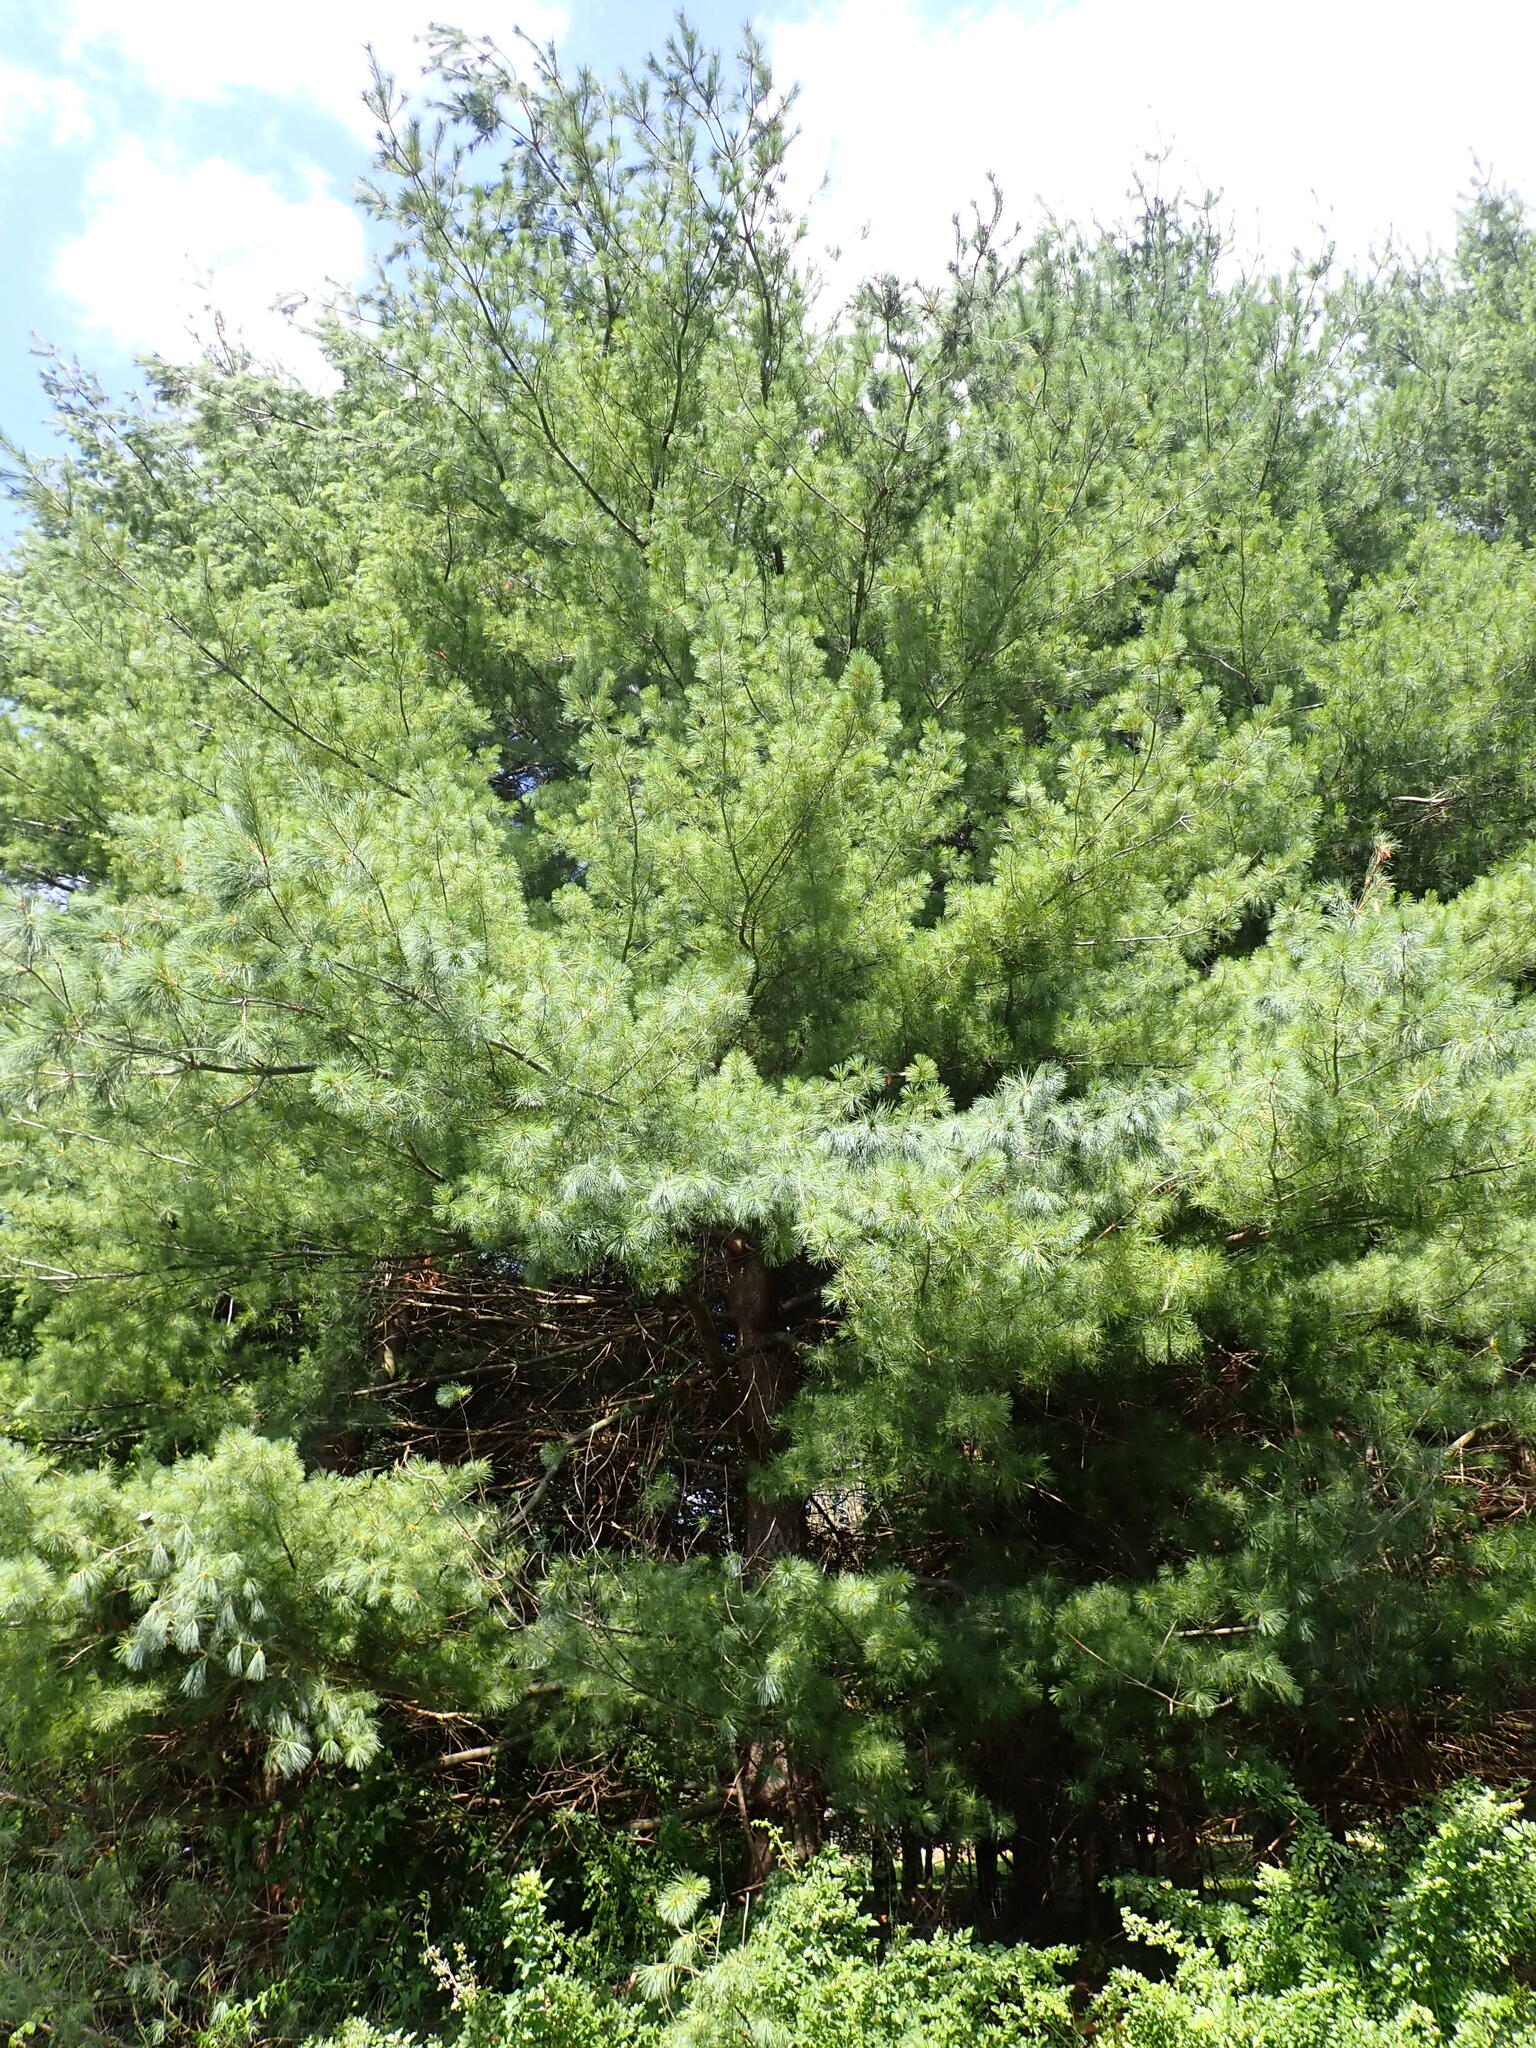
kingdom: Plantae
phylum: Tracheophyta
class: Pinopsida
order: Pinales
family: Pinaceae
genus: Pinus
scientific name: Pinus strobus
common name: Weymouth pine
